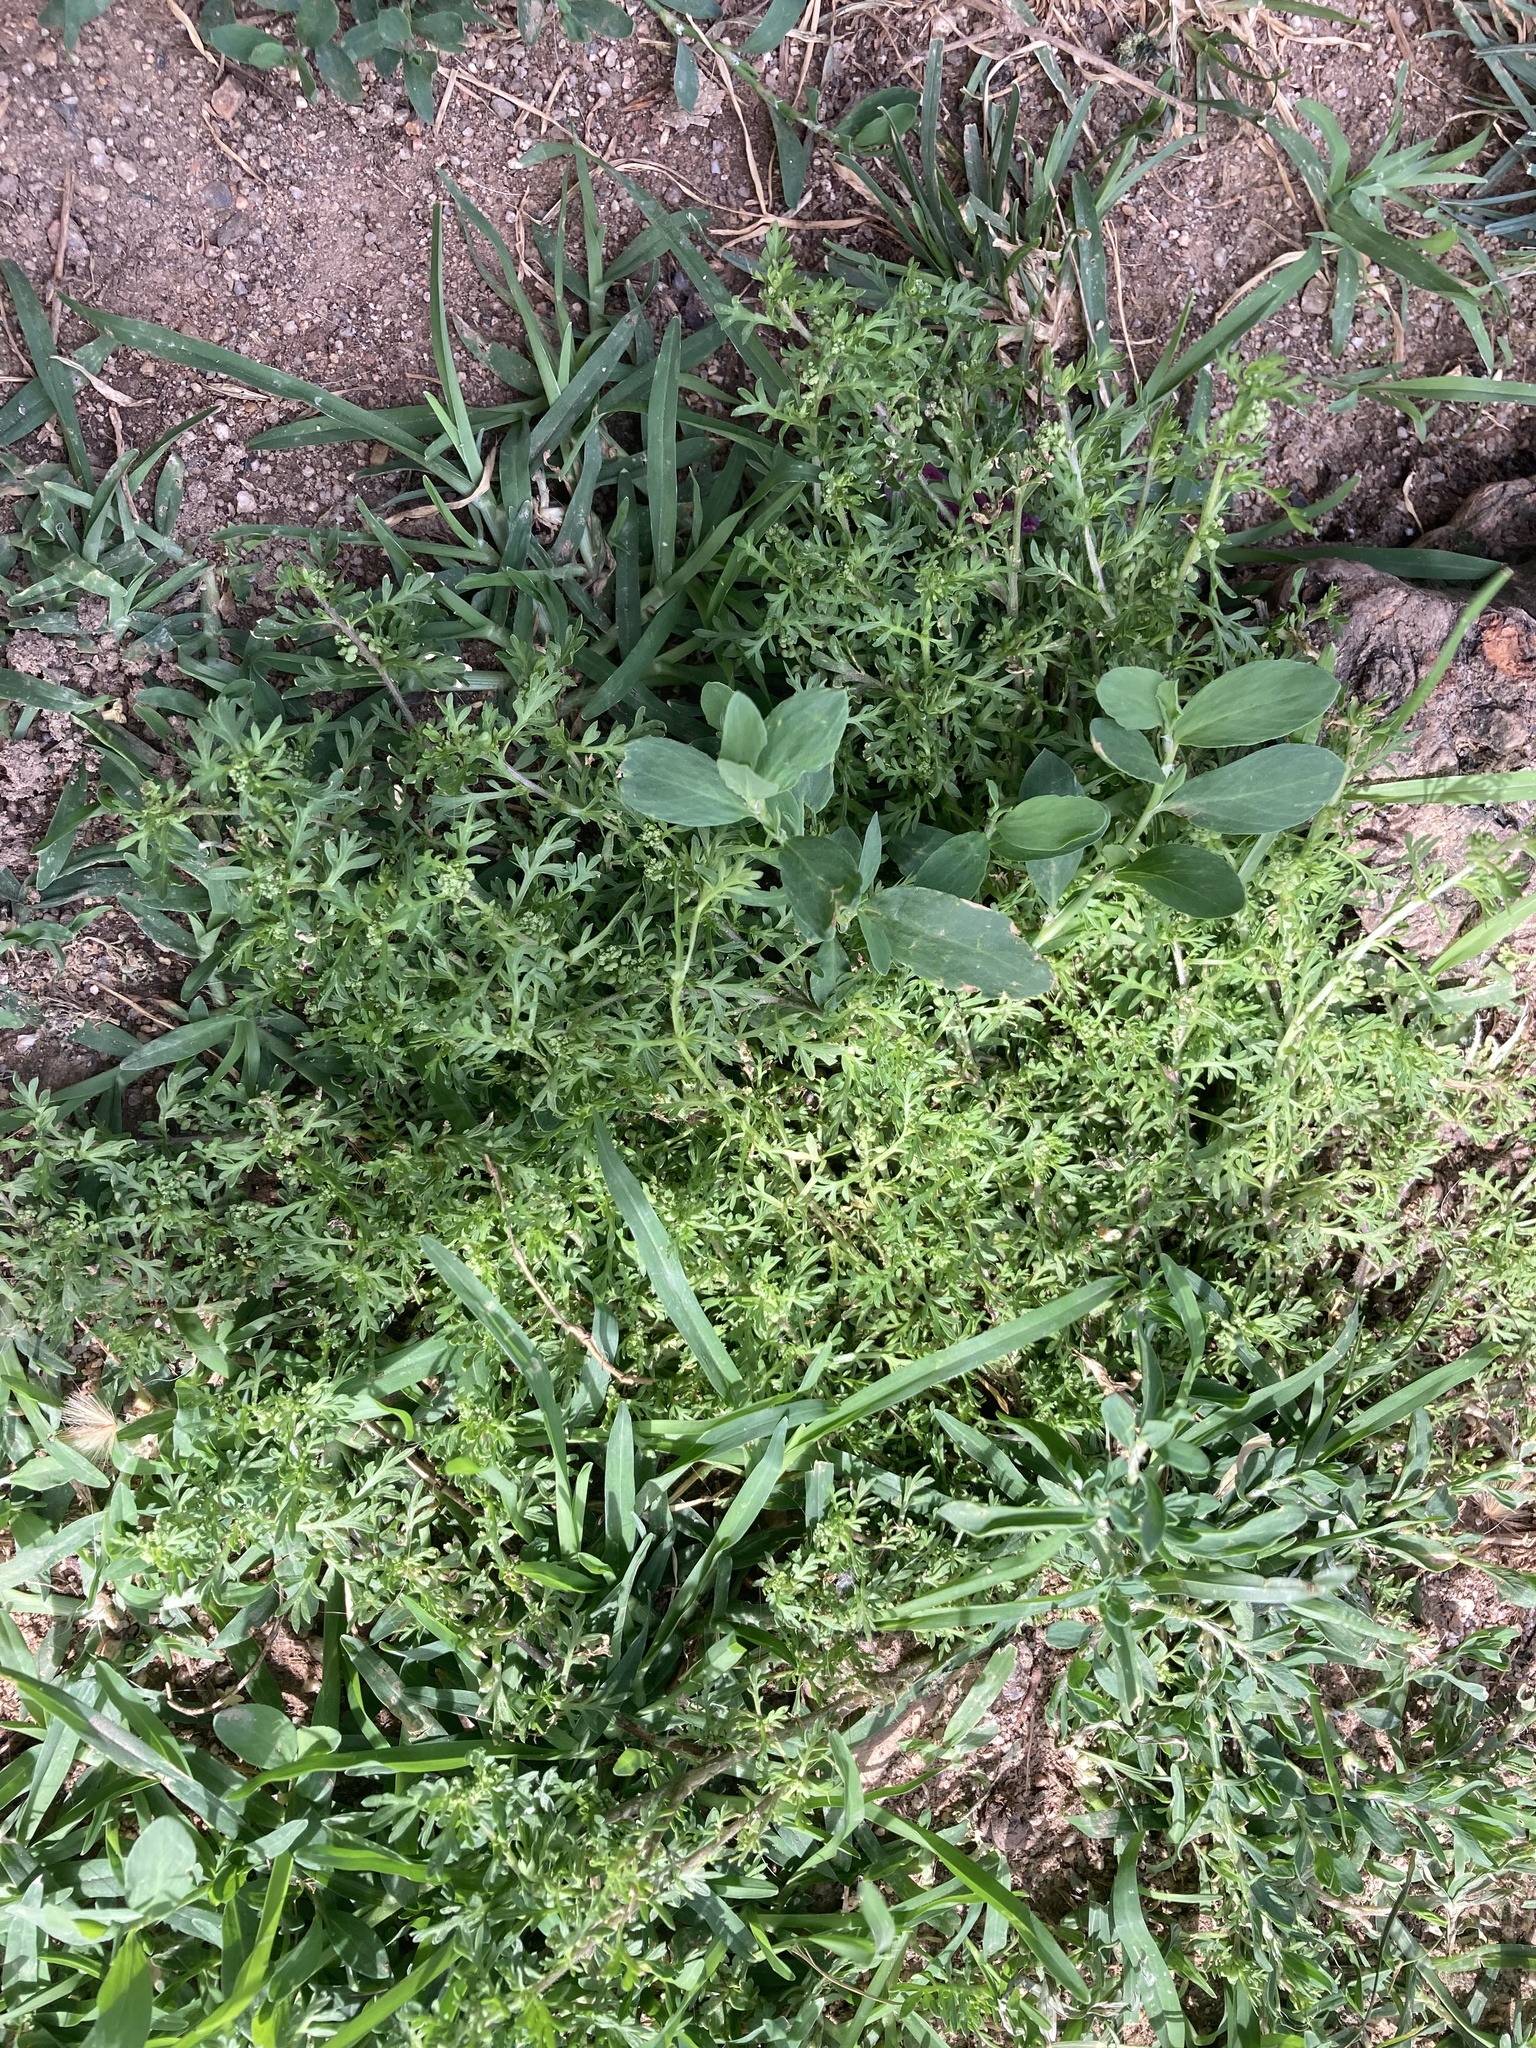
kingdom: Plantae
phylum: Tracheophyta
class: Magnoliopsida
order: Brassicales
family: Brassicaceae
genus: Lepidium
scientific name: Lepidium didymum
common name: Lesser swinecress
